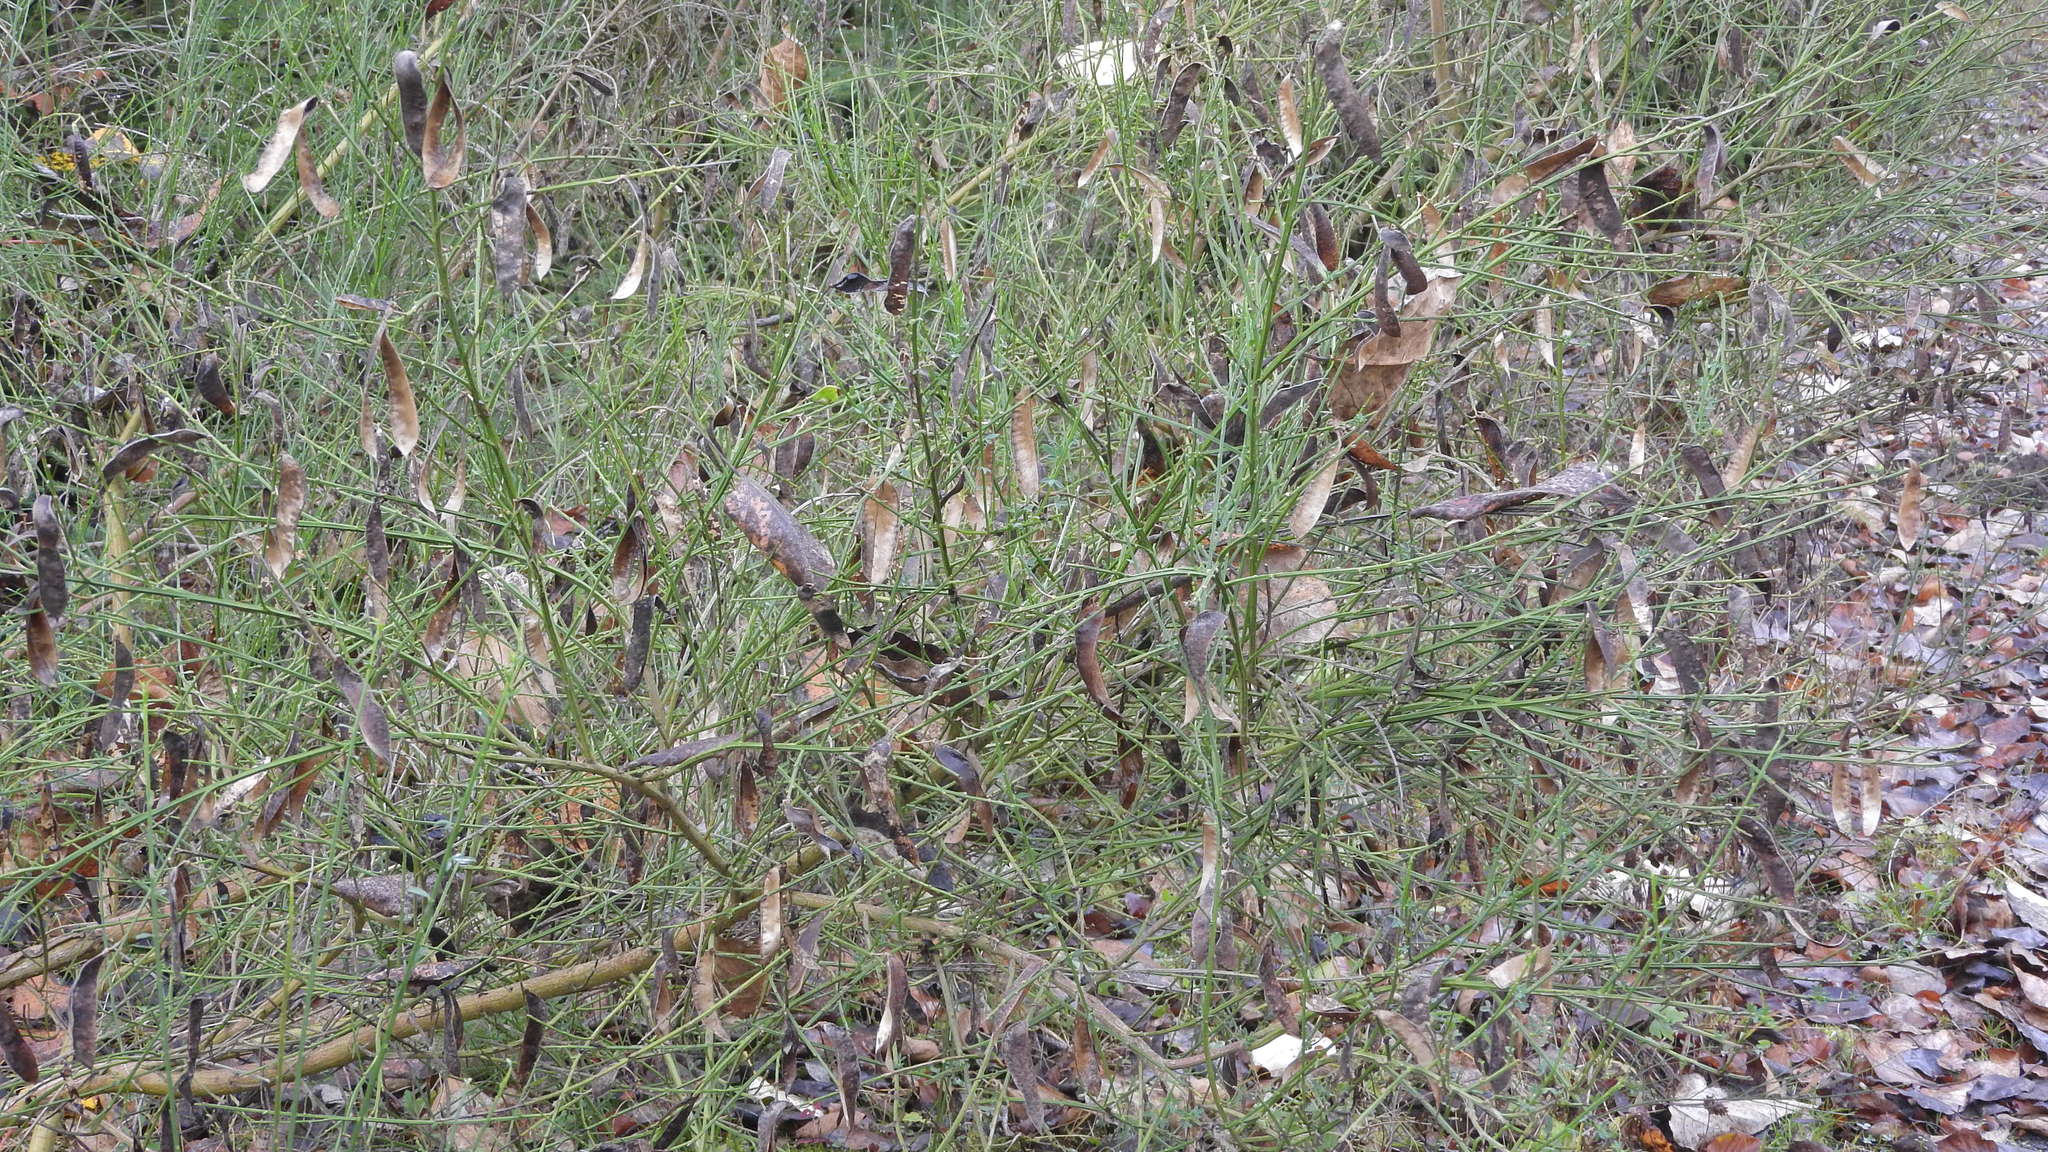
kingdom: Plantae
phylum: Tracheophyta
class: Magnoliopsida
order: Fabales
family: Fabaceae
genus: Cytisus
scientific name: Cytisus scoparius
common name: Scotch broom
